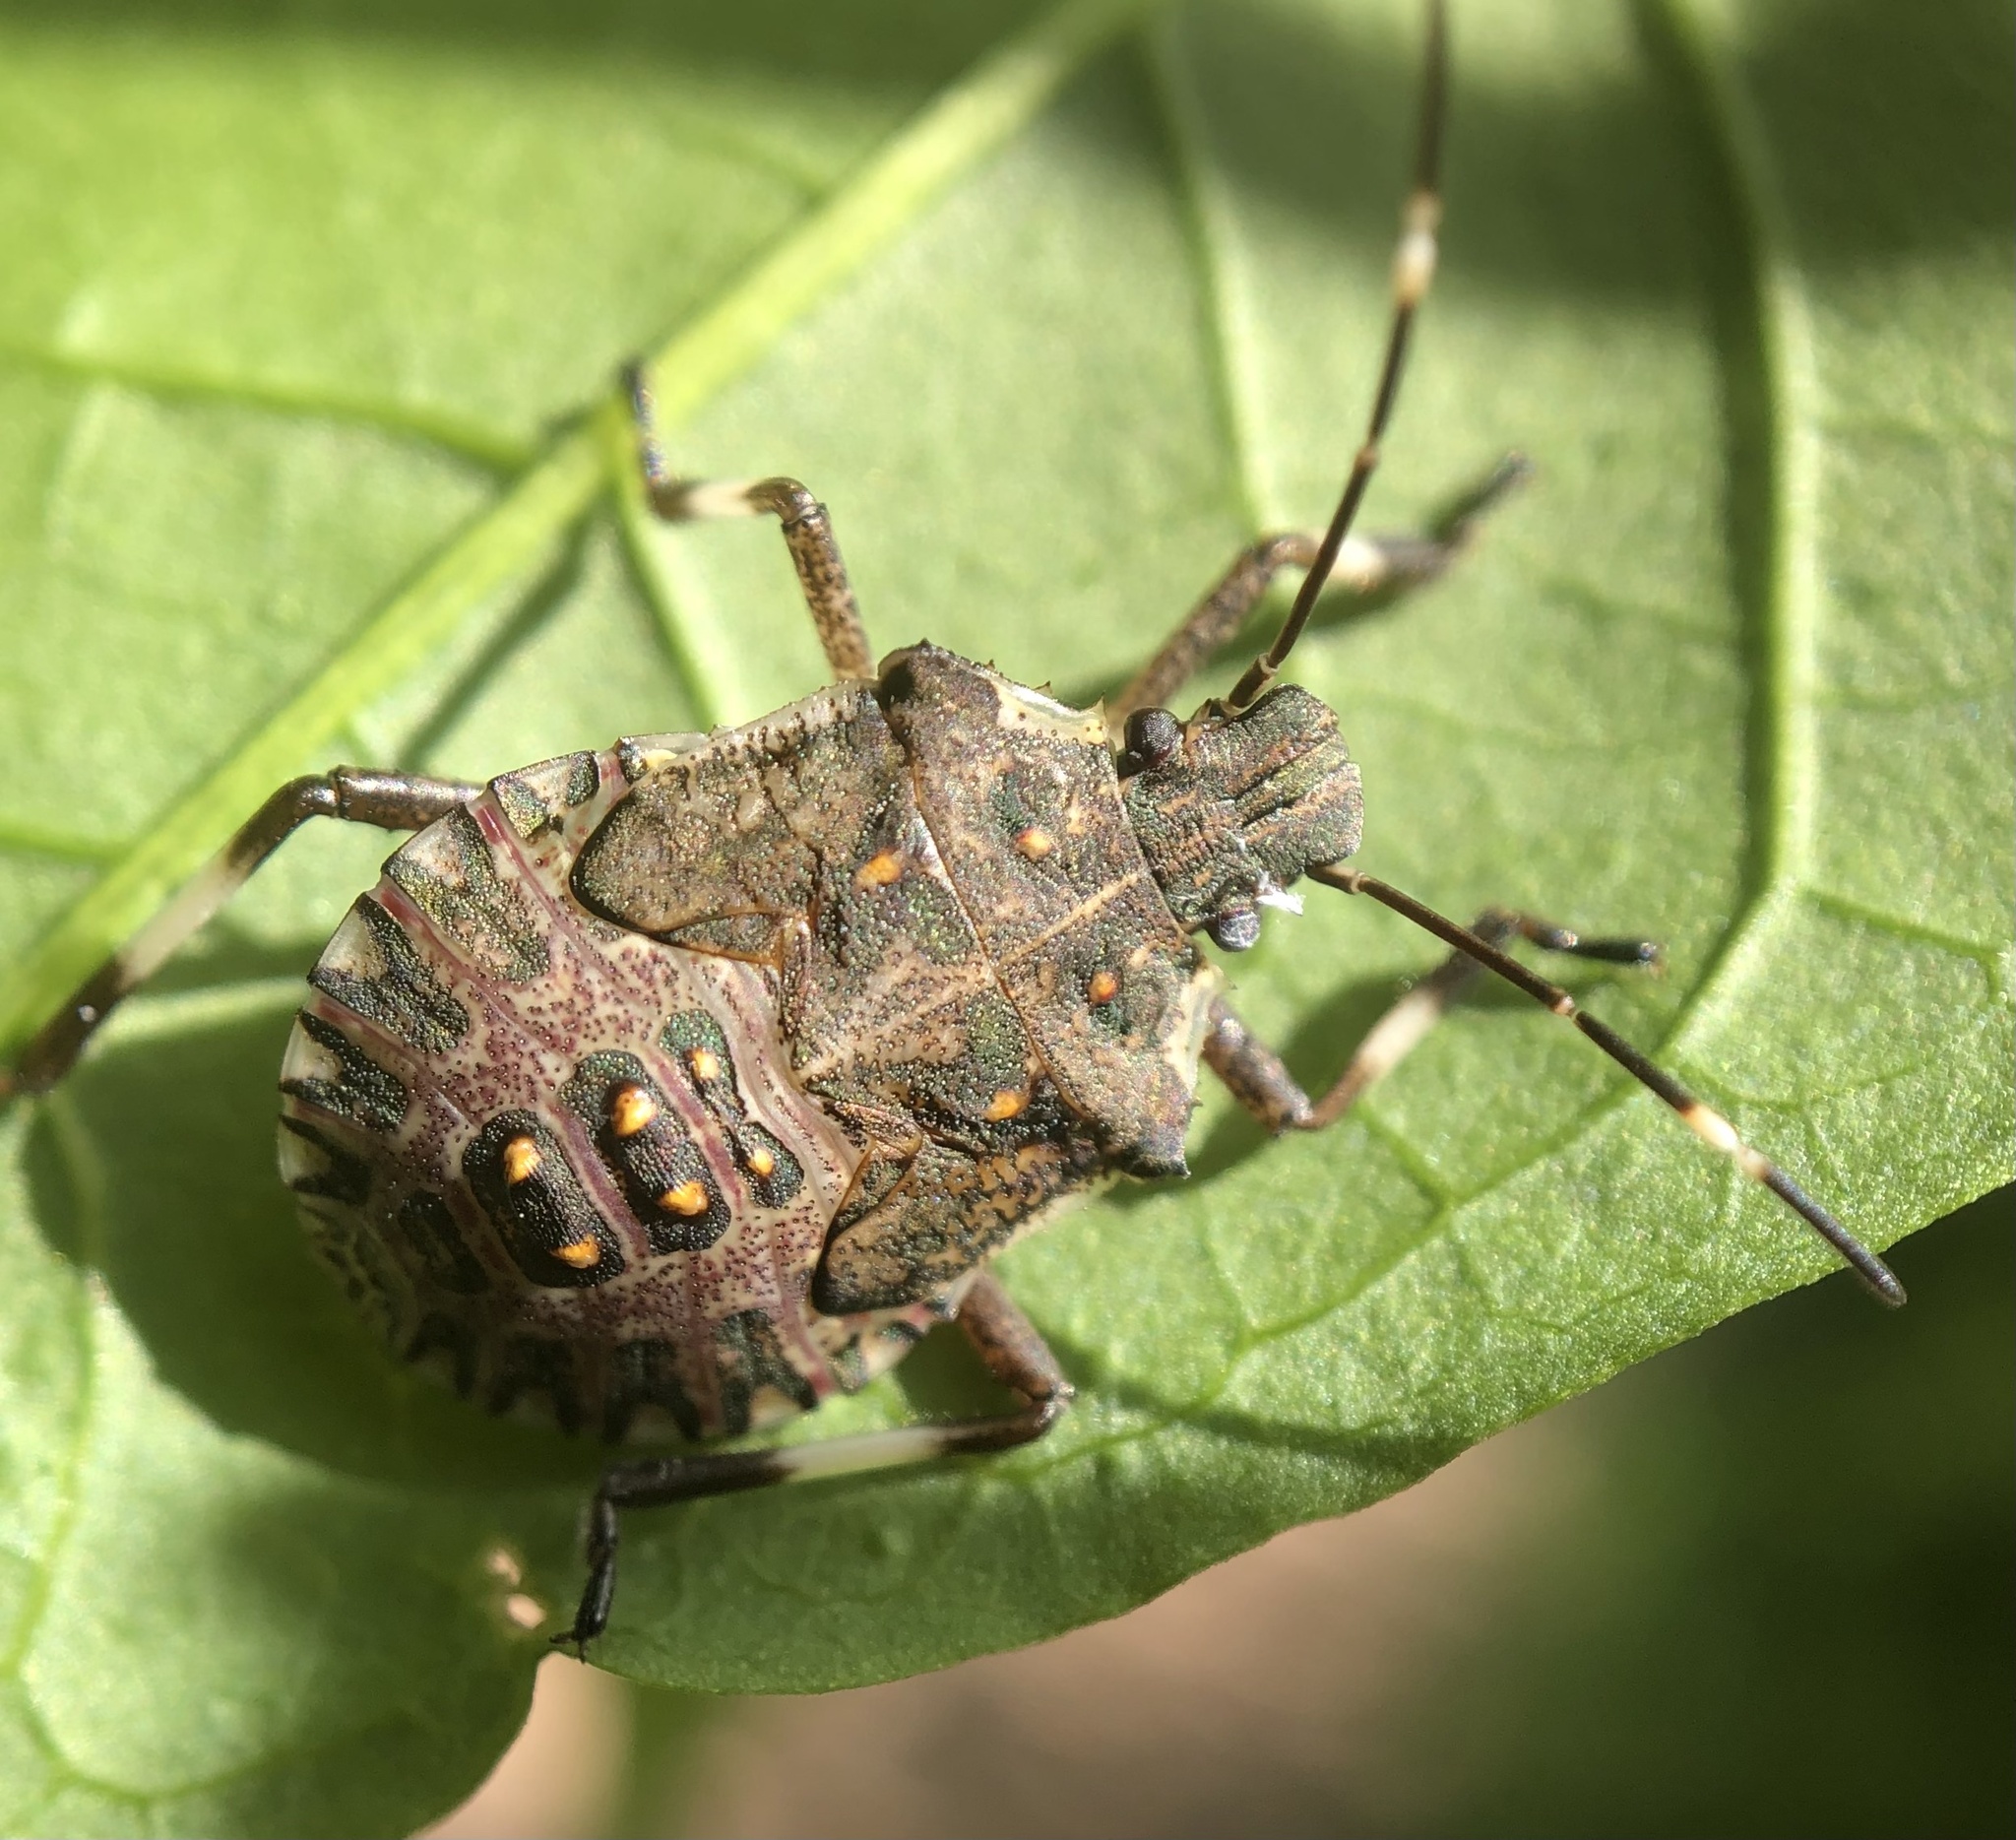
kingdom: Animalia
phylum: Arthropoda
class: Insecta
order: Hemiptera
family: Pentatomidae
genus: Halyomorpha
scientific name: Halyomorpha halys
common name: Brown marmorated stink bug
